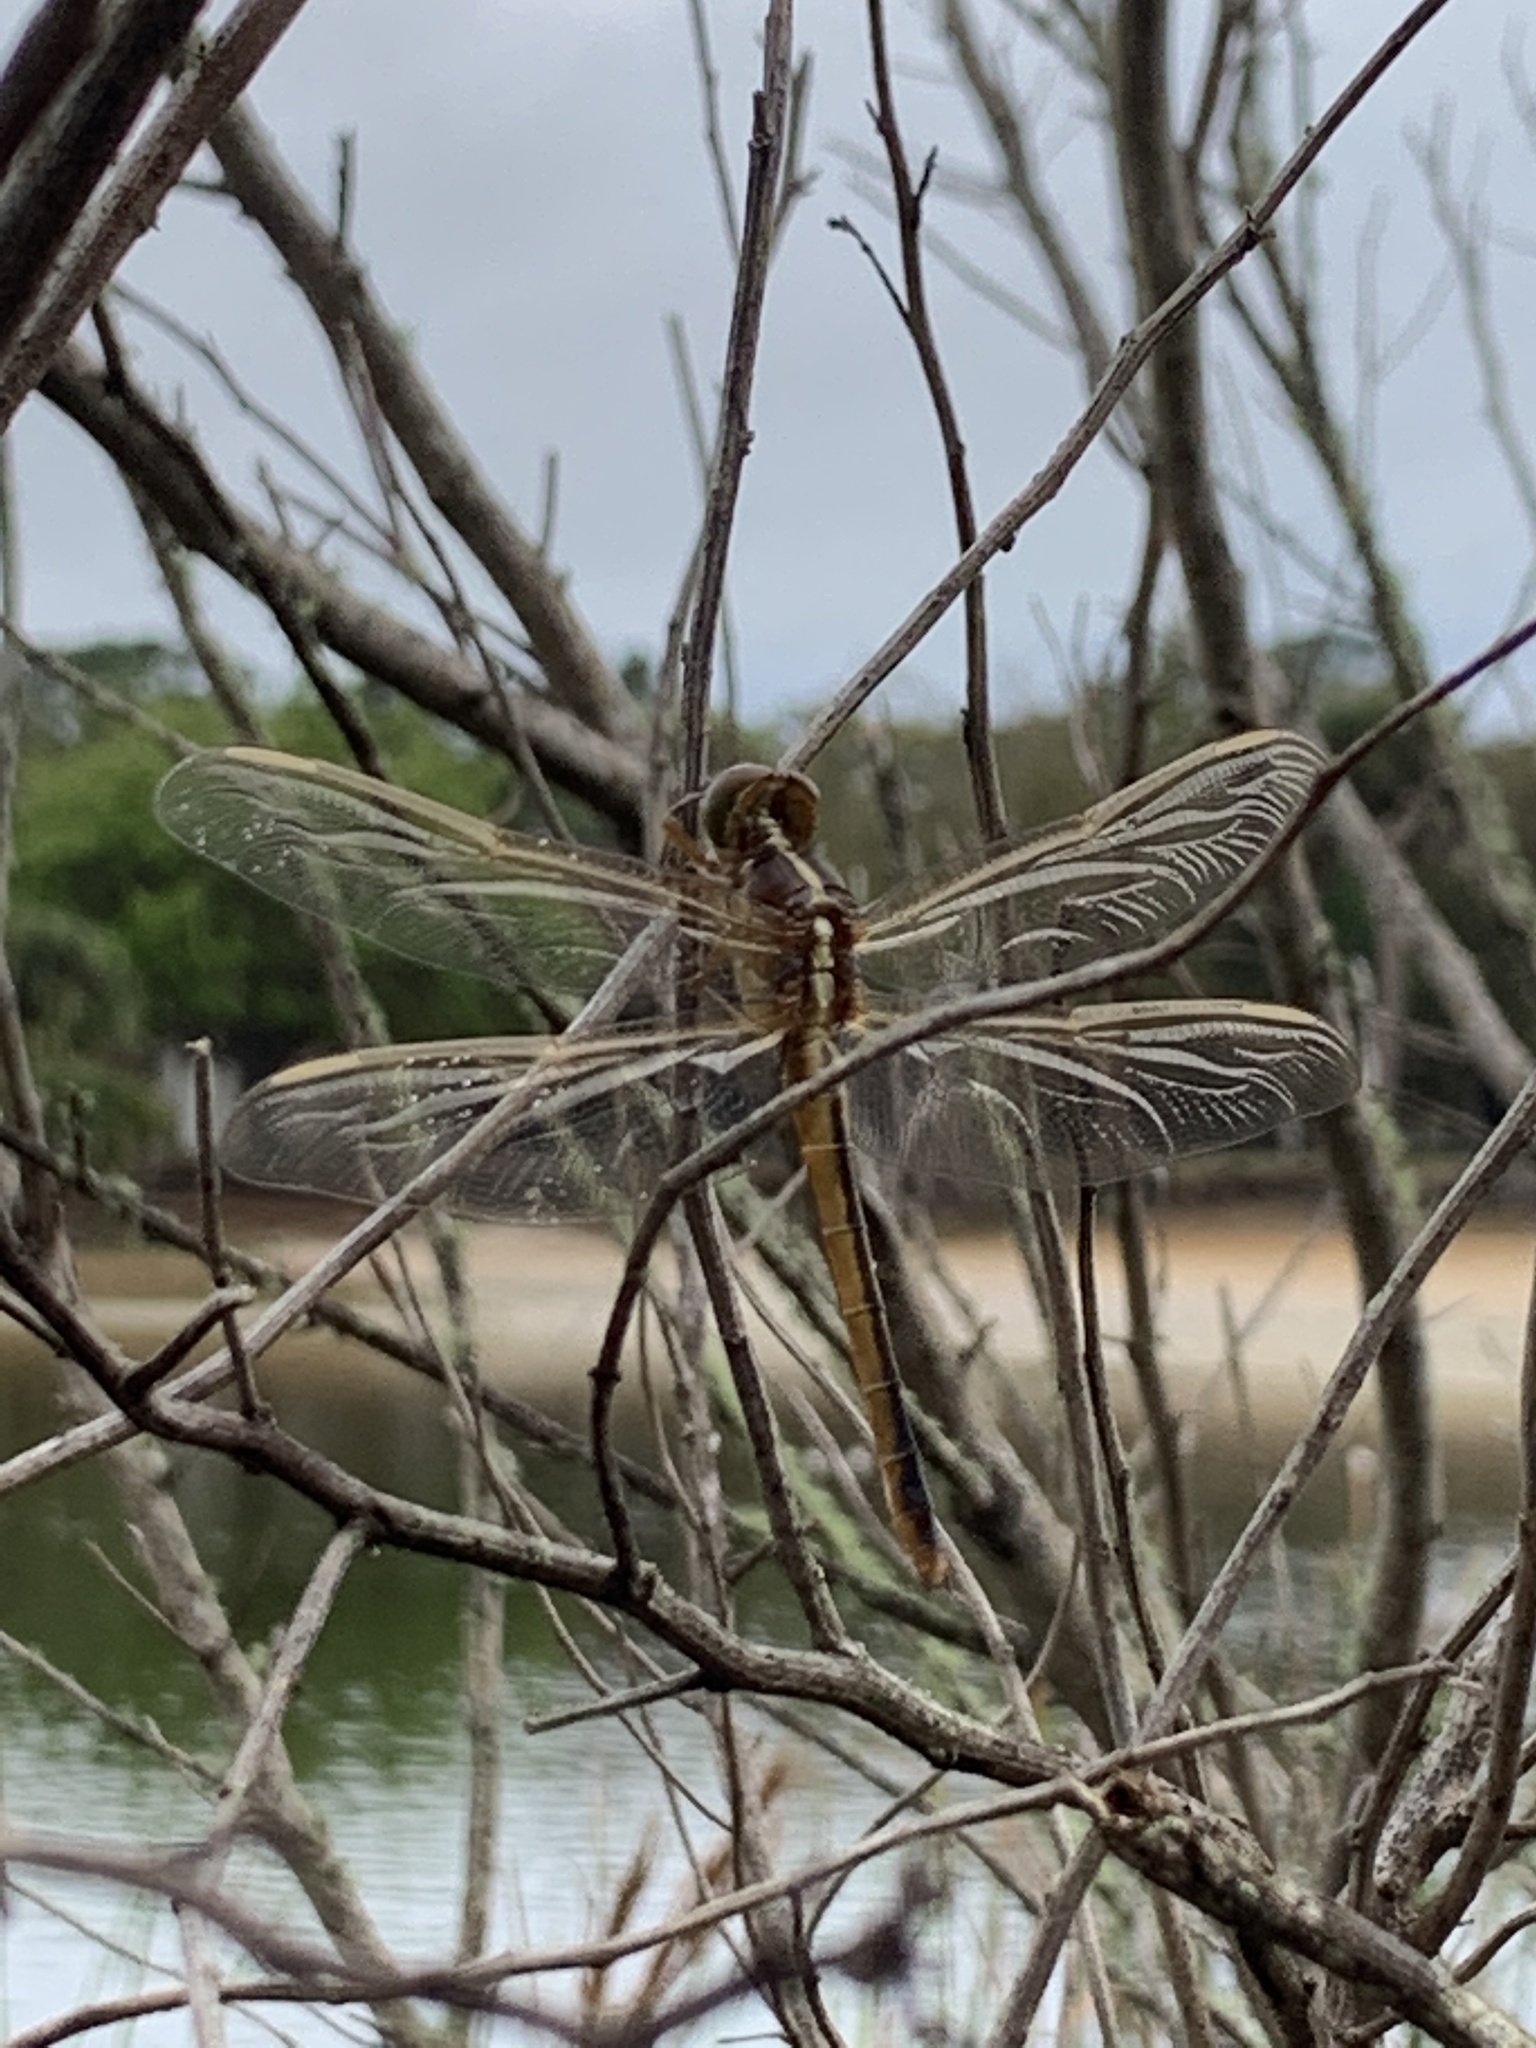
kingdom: Animalia
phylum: Arthropoda
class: Insecta
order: Odonata
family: Libellulidae
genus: Libellula
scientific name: Libellula needhami
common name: Needham's skimmer
